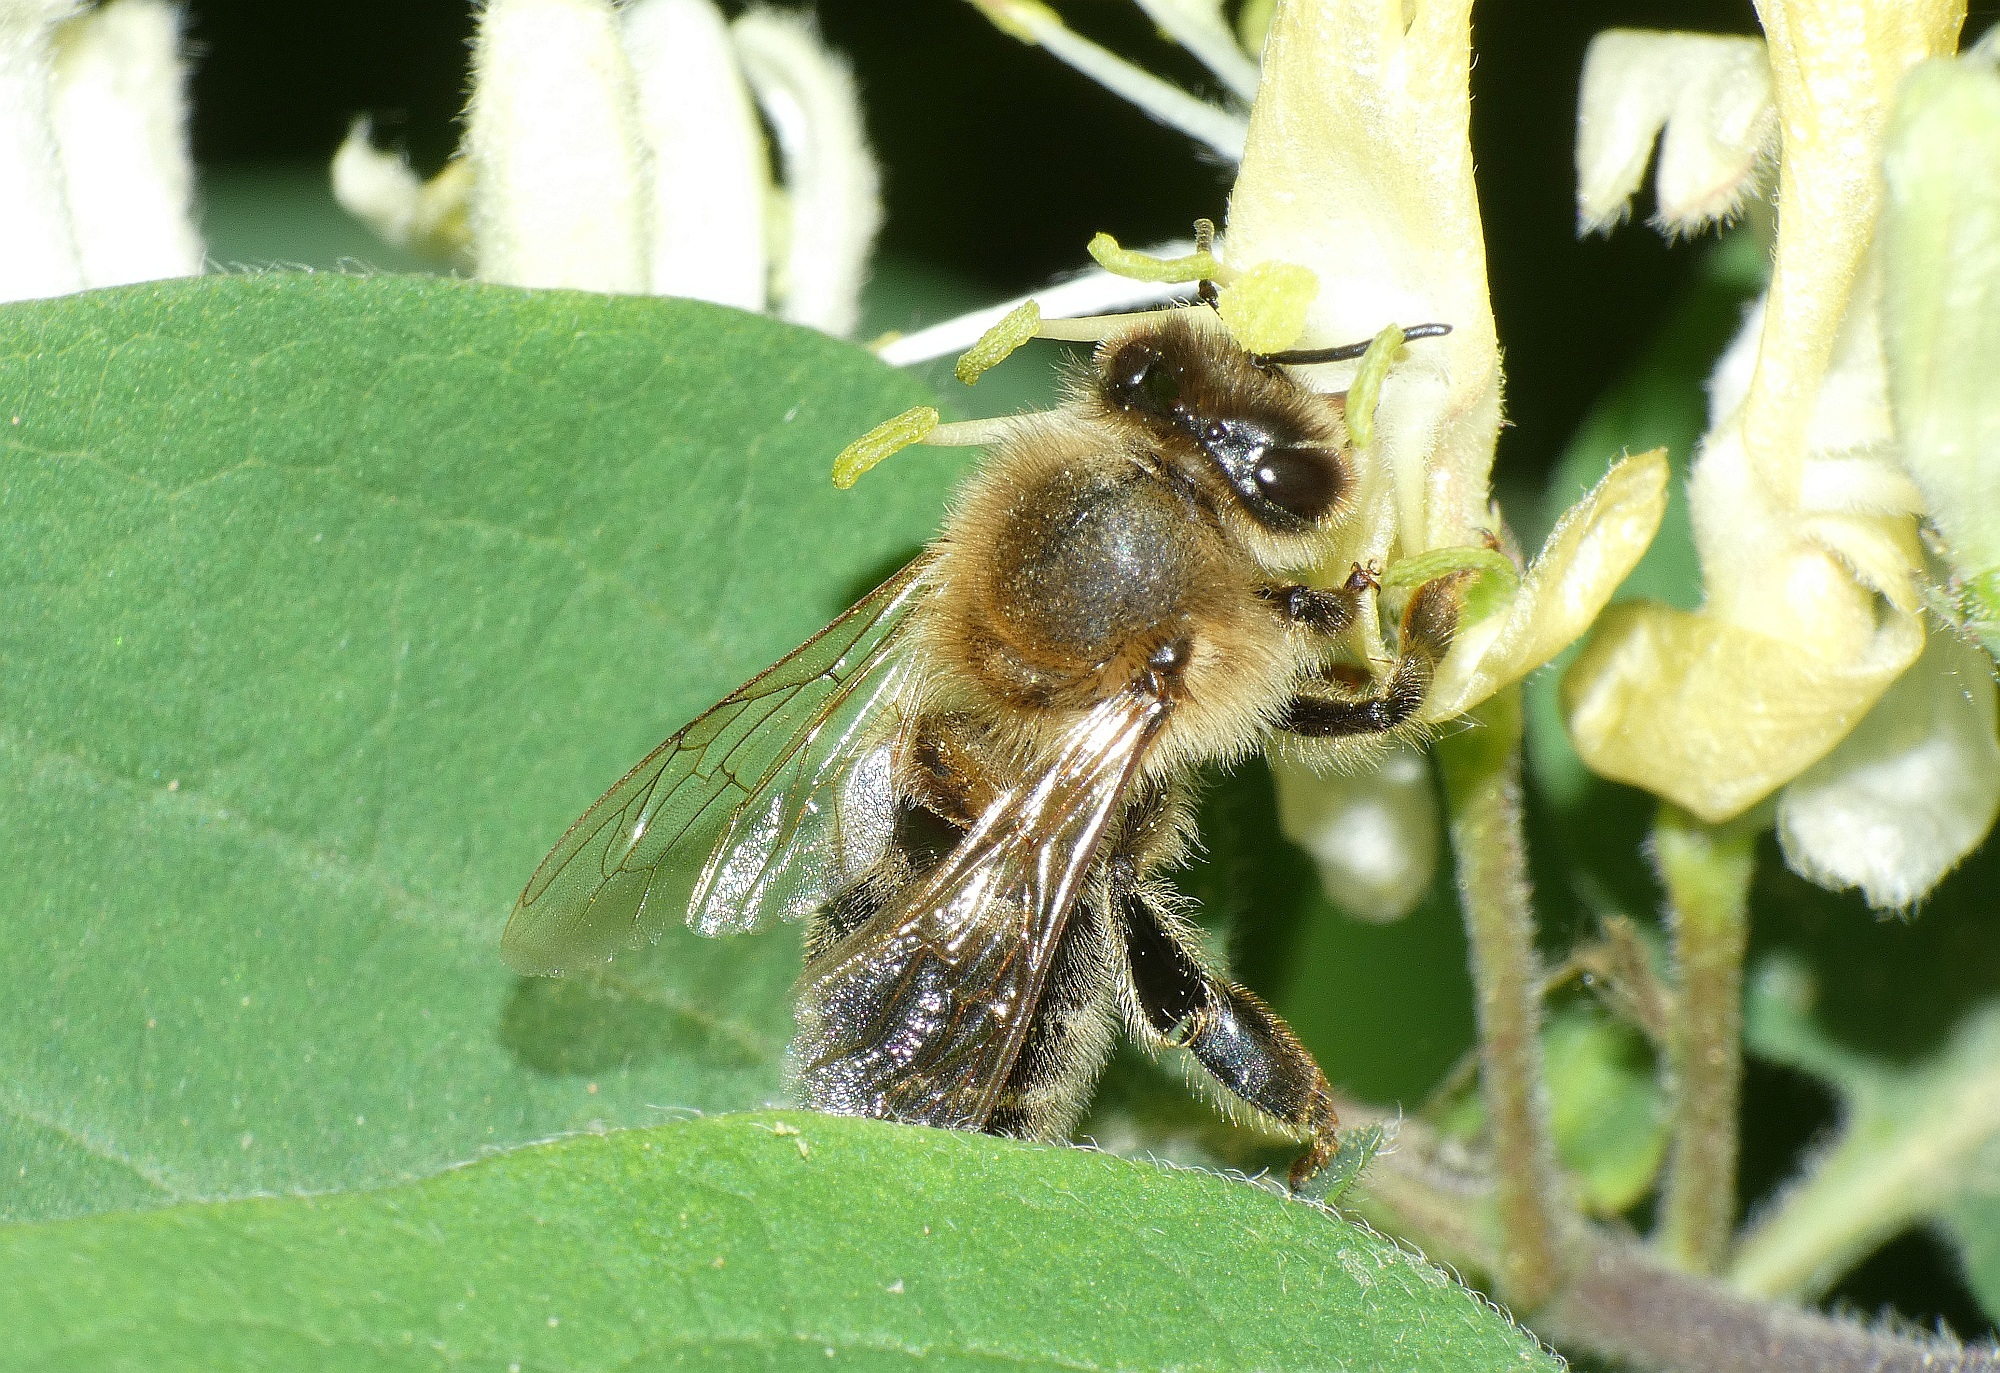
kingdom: Animalia
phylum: Arthropoda
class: Insecta
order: Hymenoptera
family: Apidae
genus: Apis
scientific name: Apis mellifera
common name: Honey bee
